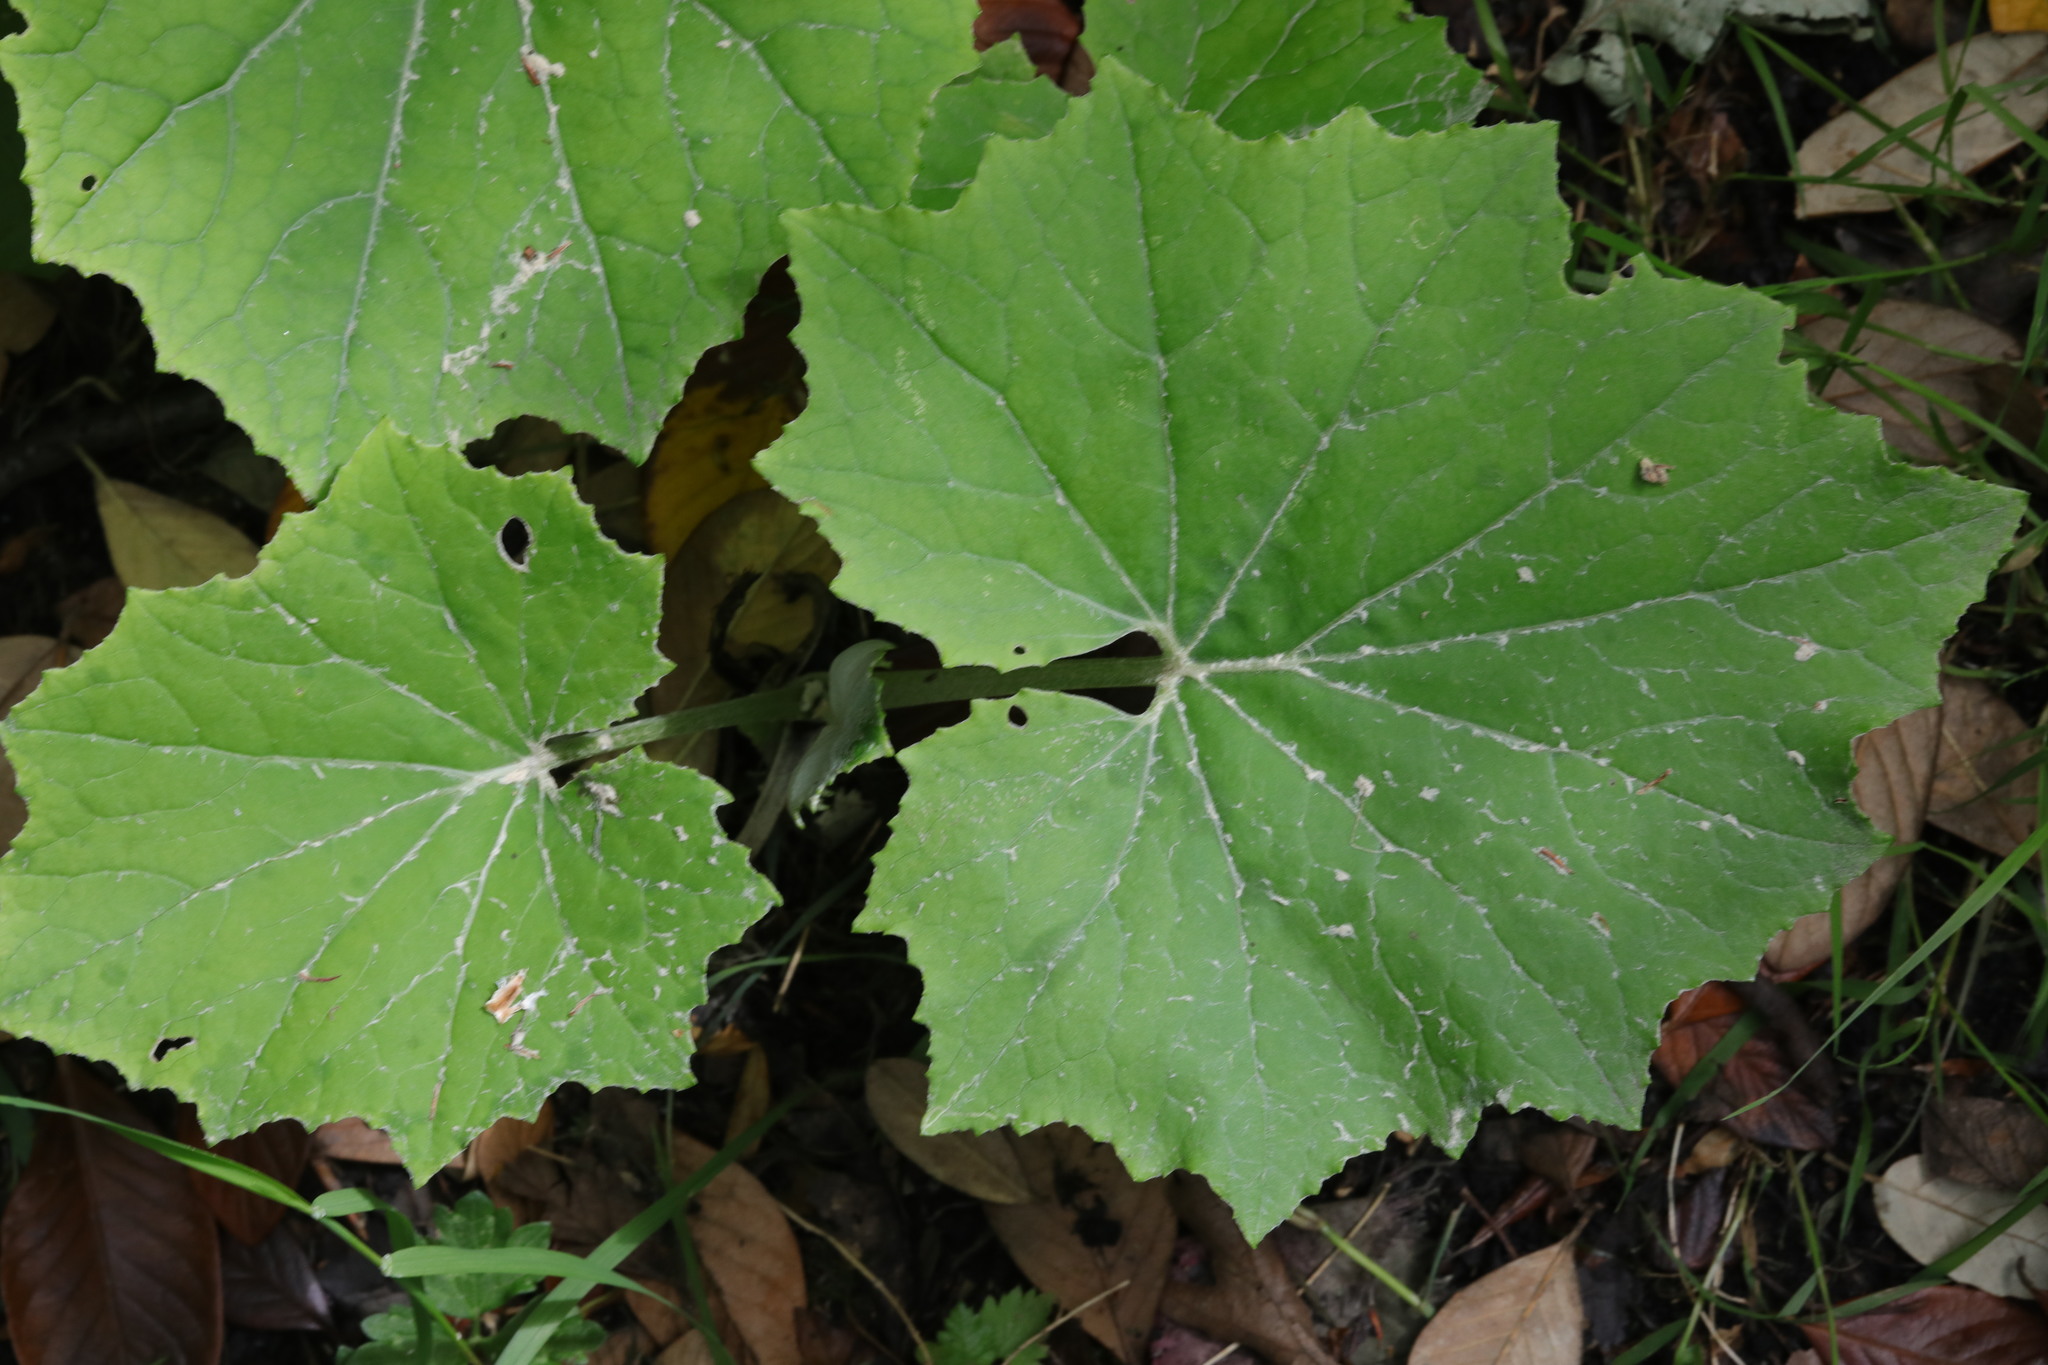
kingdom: Plantae
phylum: Tracheophyta
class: Magnoliopsida
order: Asterales
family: Asteraceae
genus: Tussilago
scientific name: Tussilago farfara
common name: Coltsfoot
